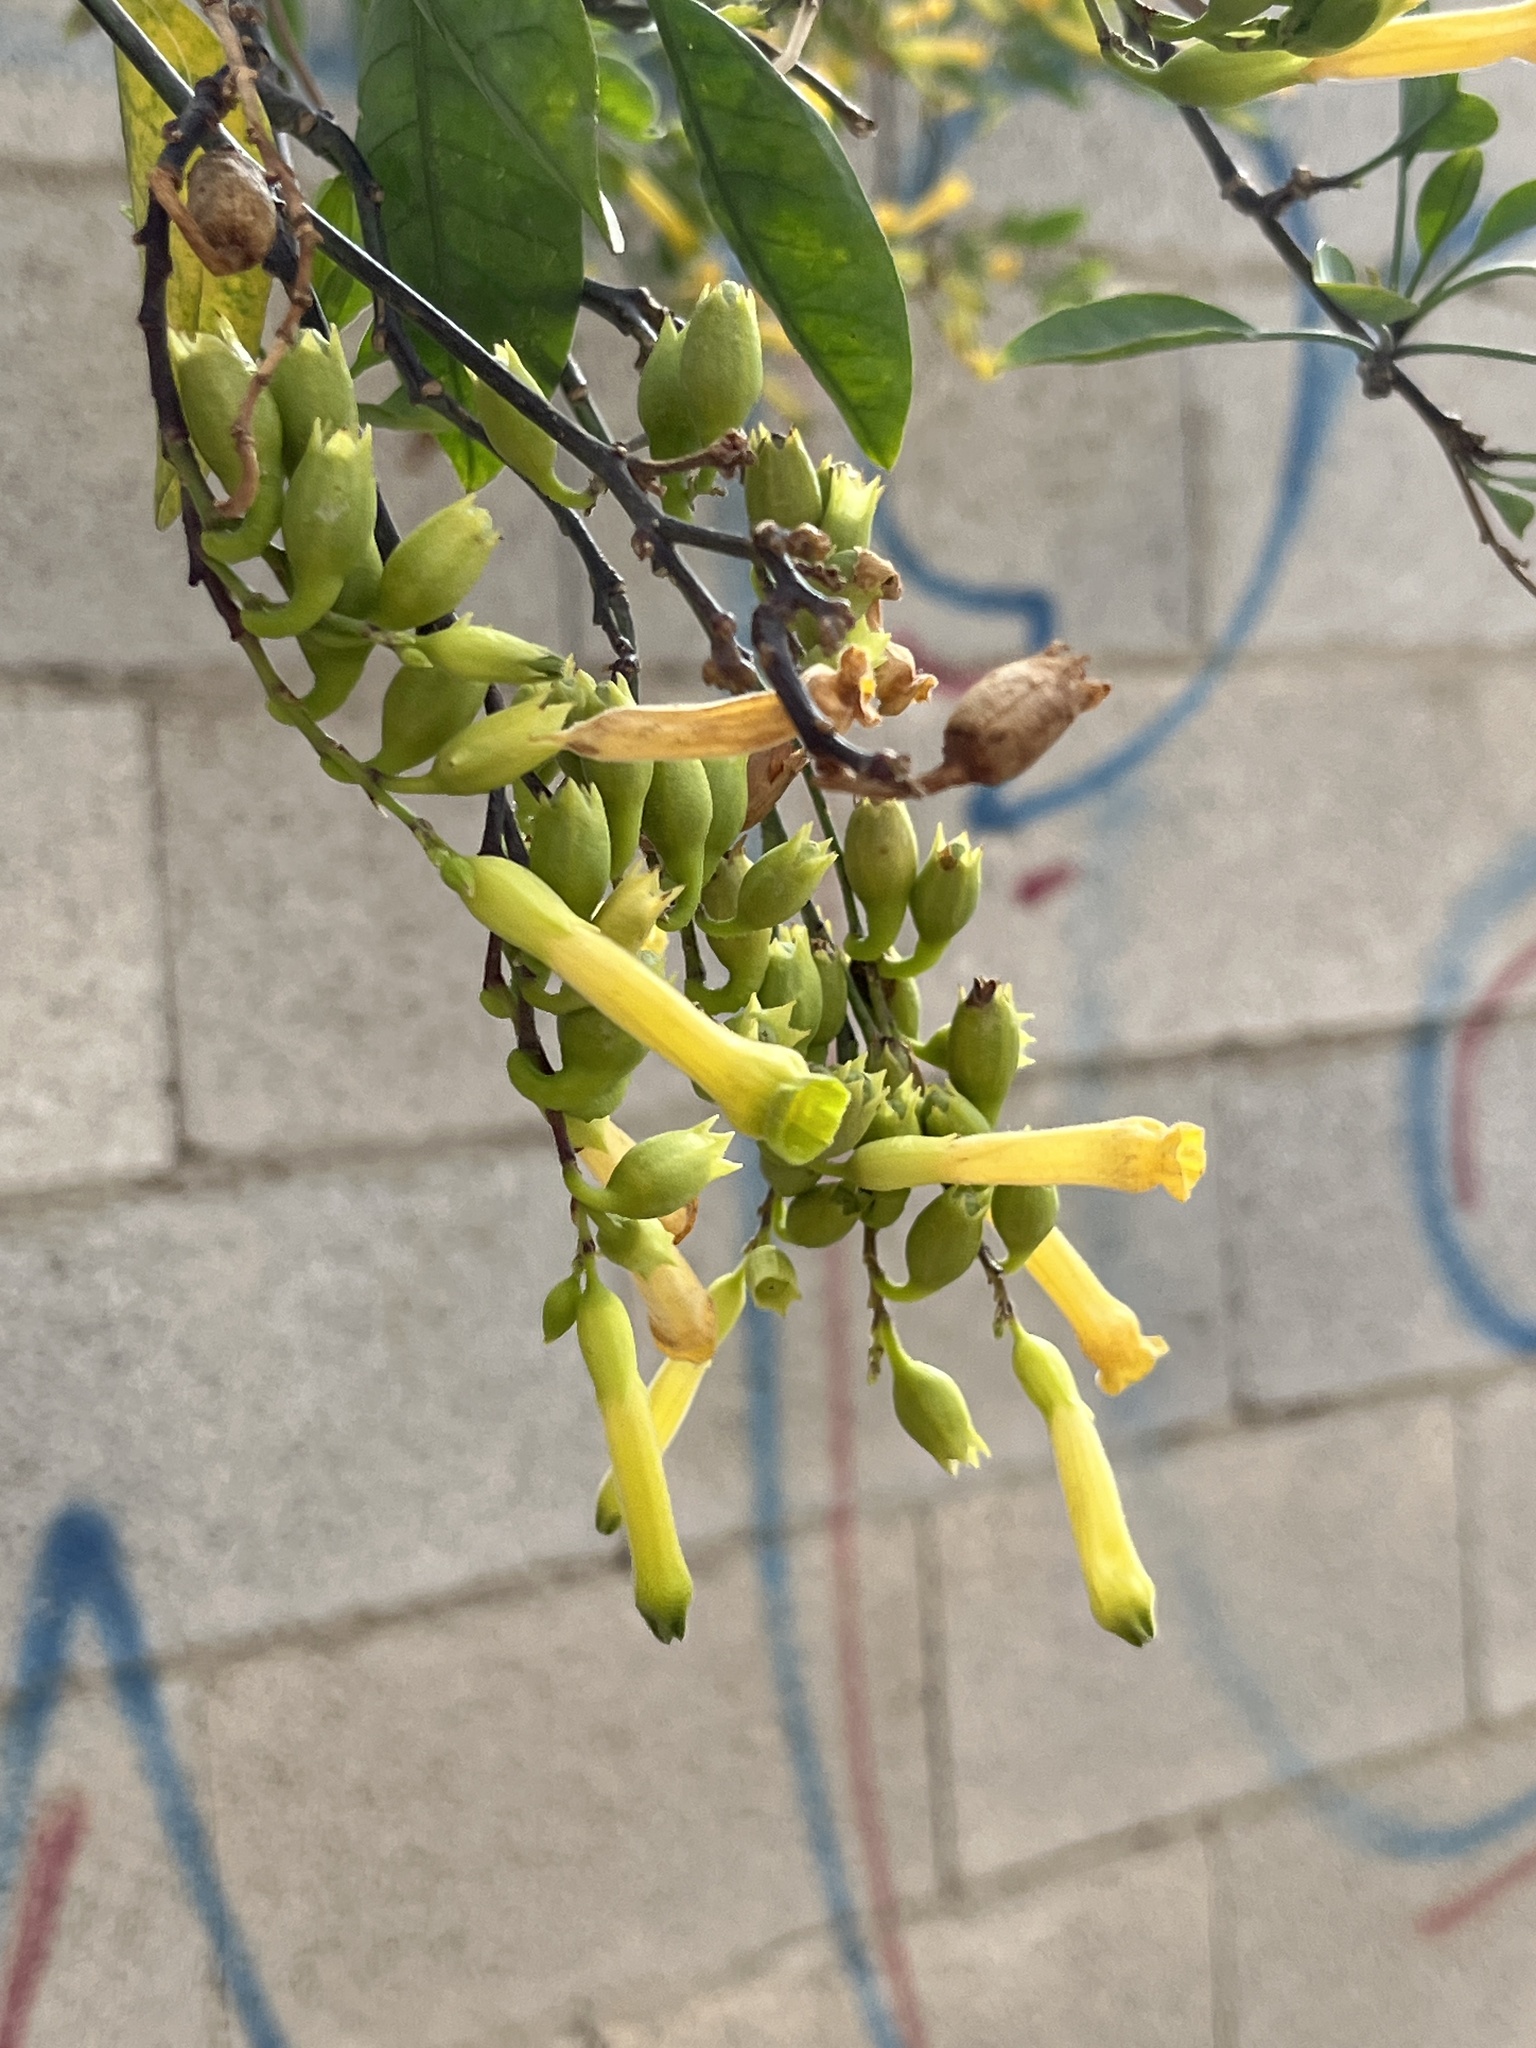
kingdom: Plantae
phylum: Tracheophyta
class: Magnoliopsida
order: Solanales
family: Solanaceae
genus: Nicotiana
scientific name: Nicotiana glauca
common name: Tree tobacco
